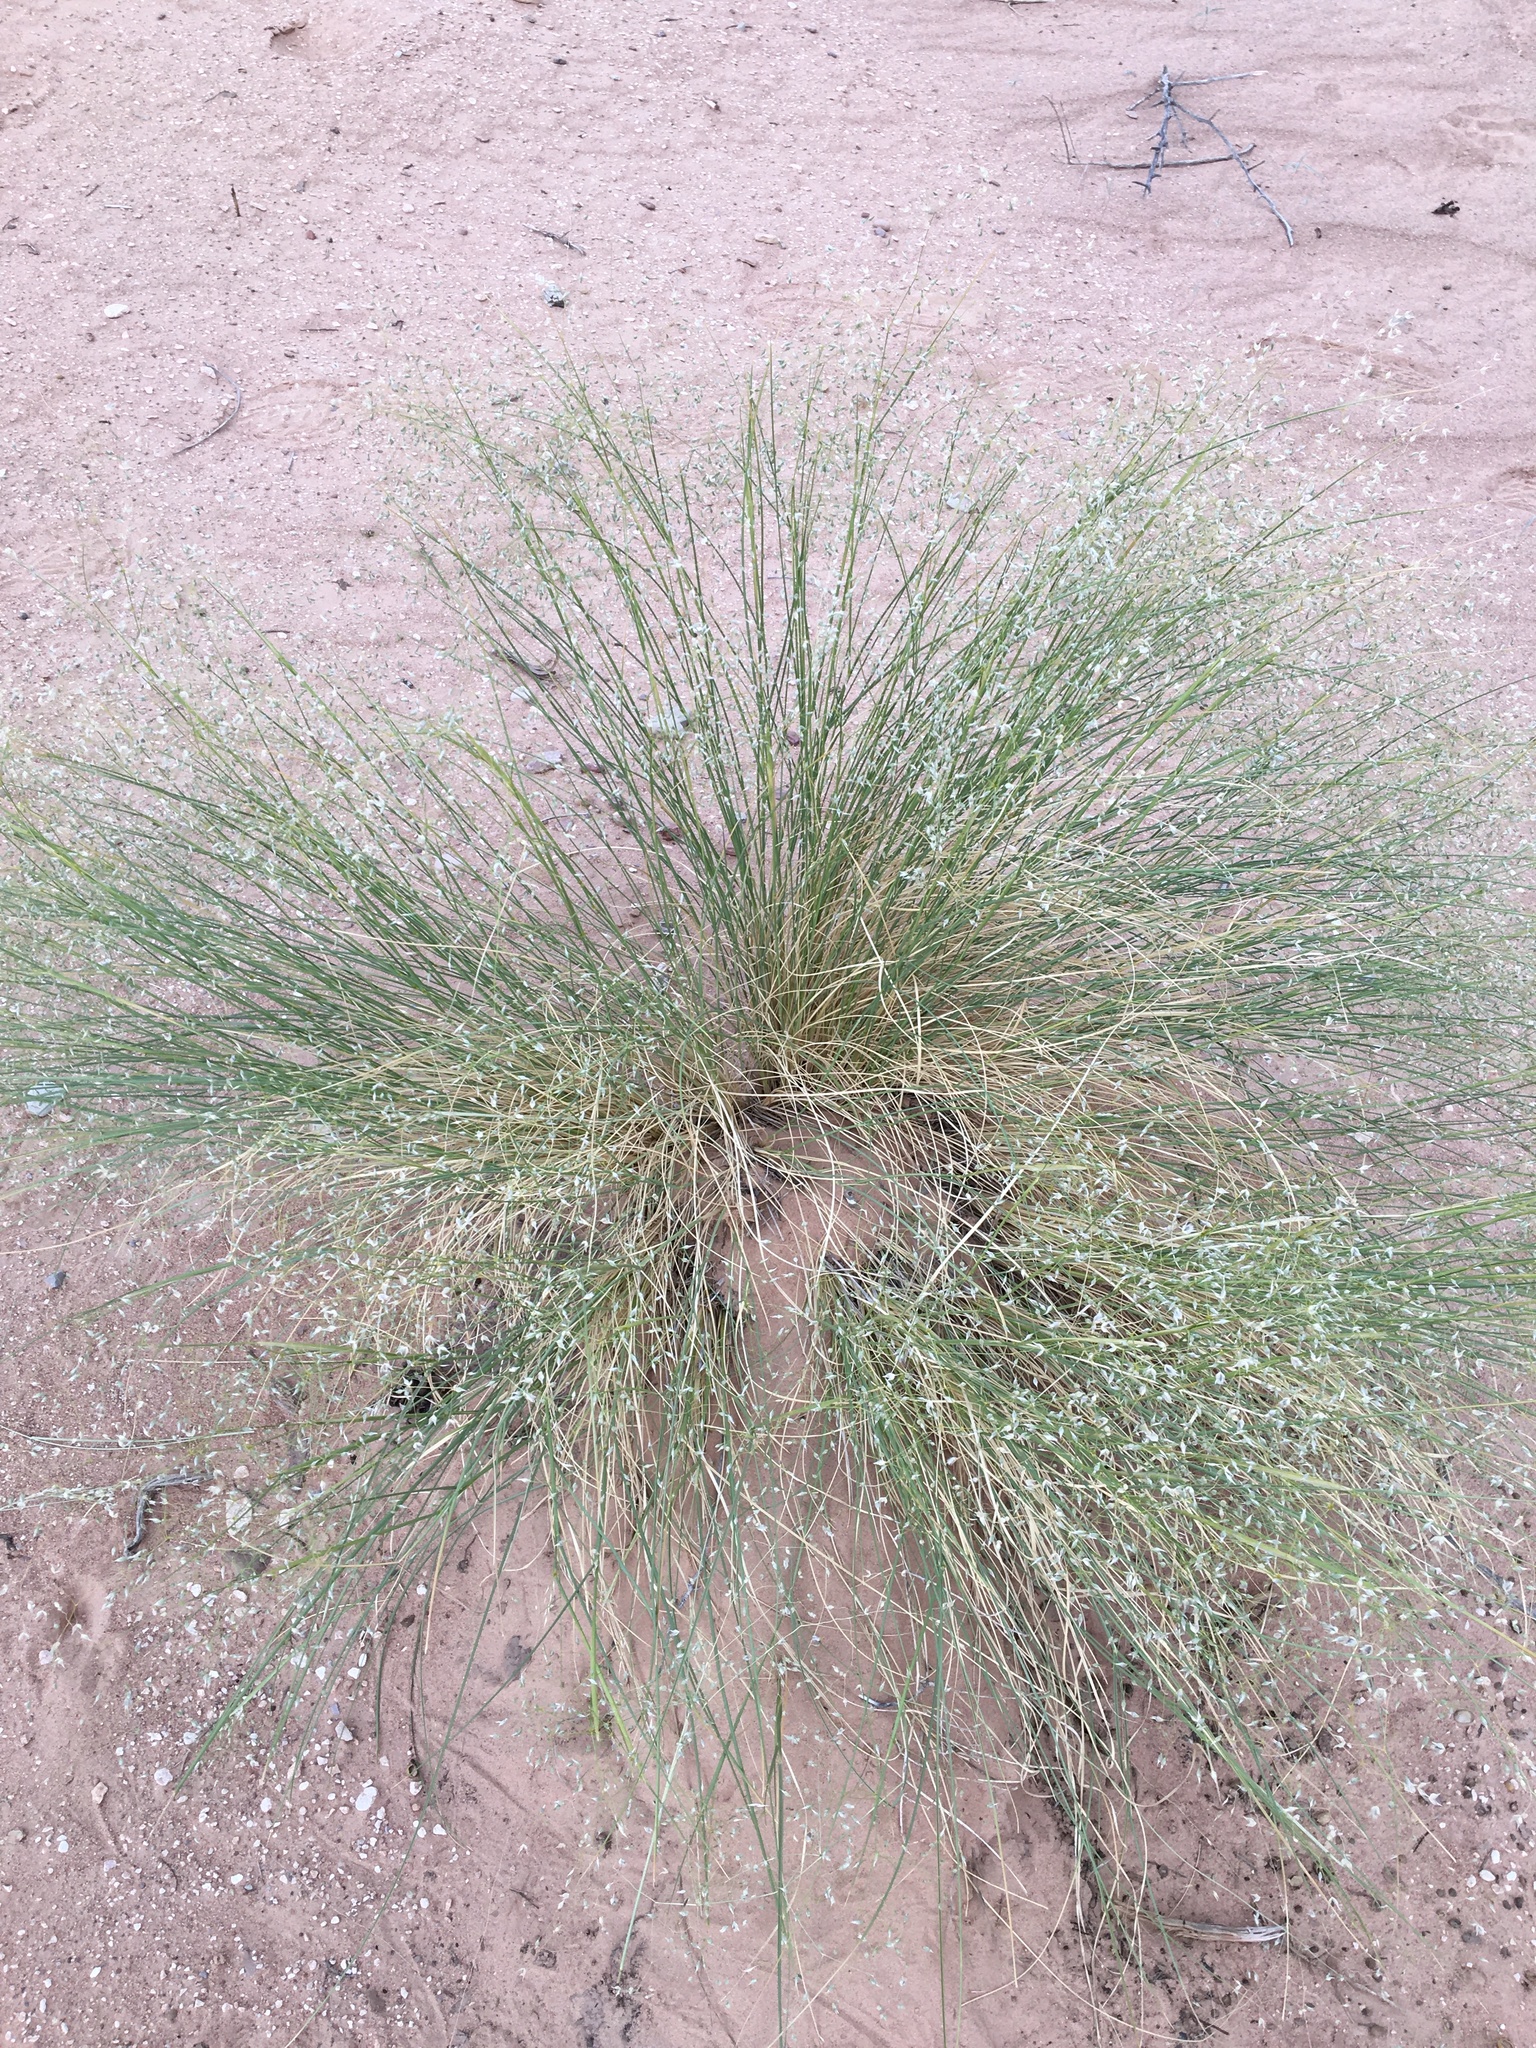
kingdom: Plantae
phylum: Tracheophyta
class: Liliopsida
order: Poales
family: Poaceae
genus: Eriocoma
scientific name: Eriocoma hymenoides
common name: Indian mountain ricegrass
